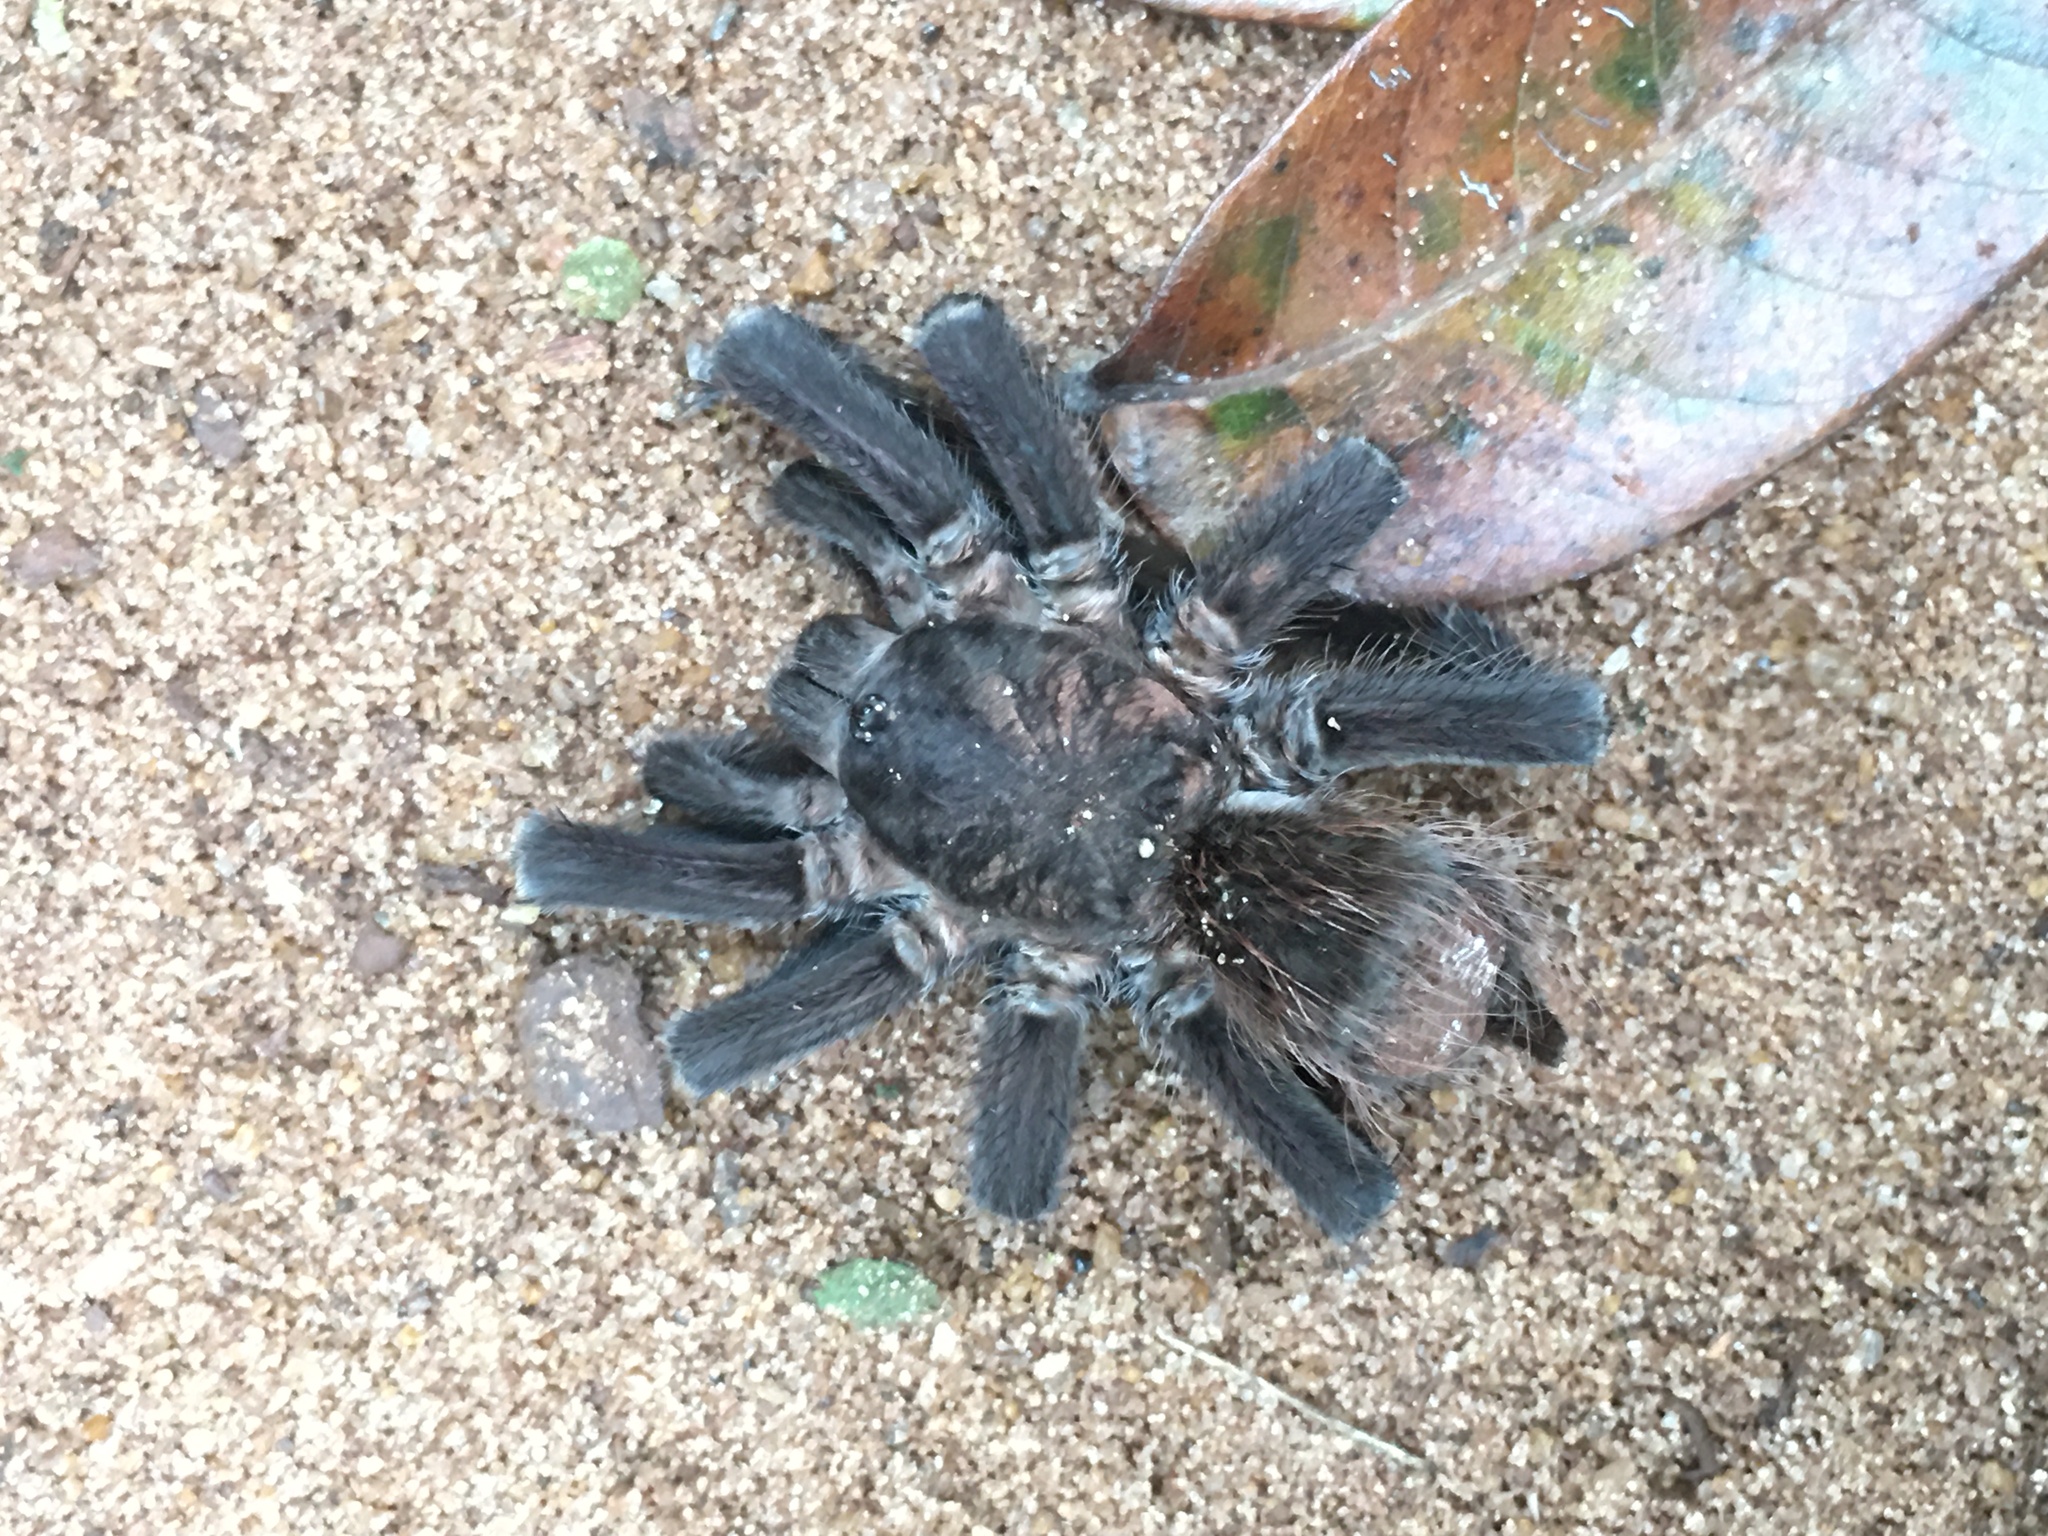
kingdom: Animalia
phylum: Arthropoda
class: Arachnida
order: Araneae
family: Theraphosidae
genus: Pterinopelma
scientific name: Pterinopelma longisternale
